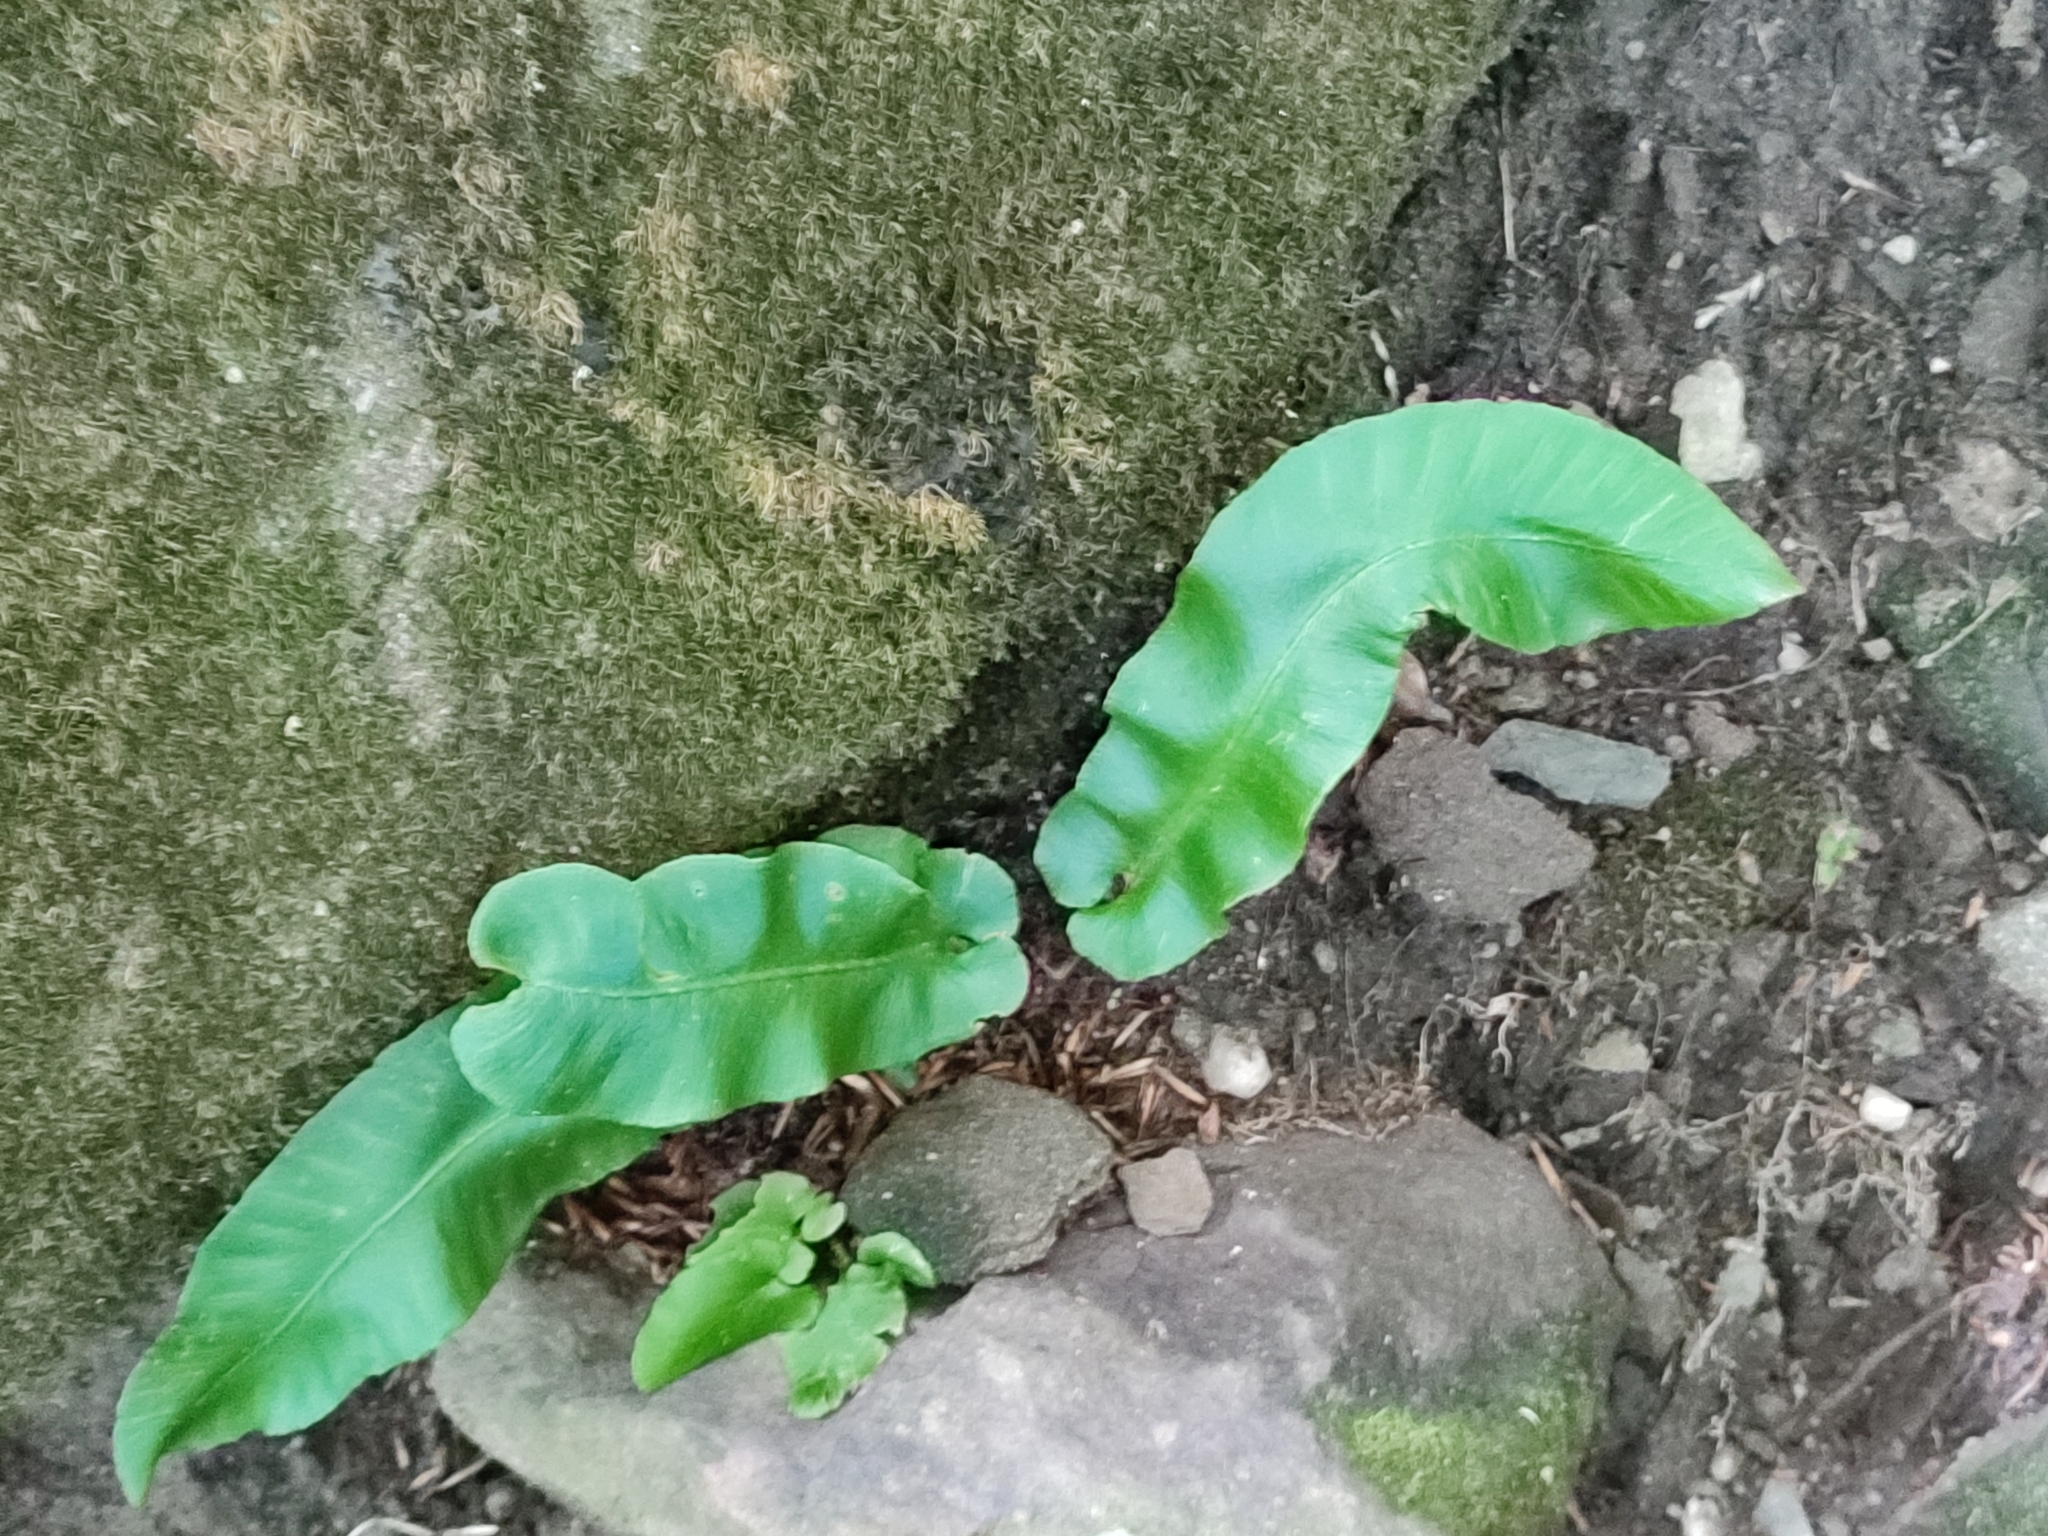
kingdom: Plantae
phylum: Tracheophyta
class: Polypodiopsida
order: Polypodiales
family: Aspleniaceae
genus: Asplenium
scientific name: Asplenium scolopendrium
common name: Hart's-tongue fern
